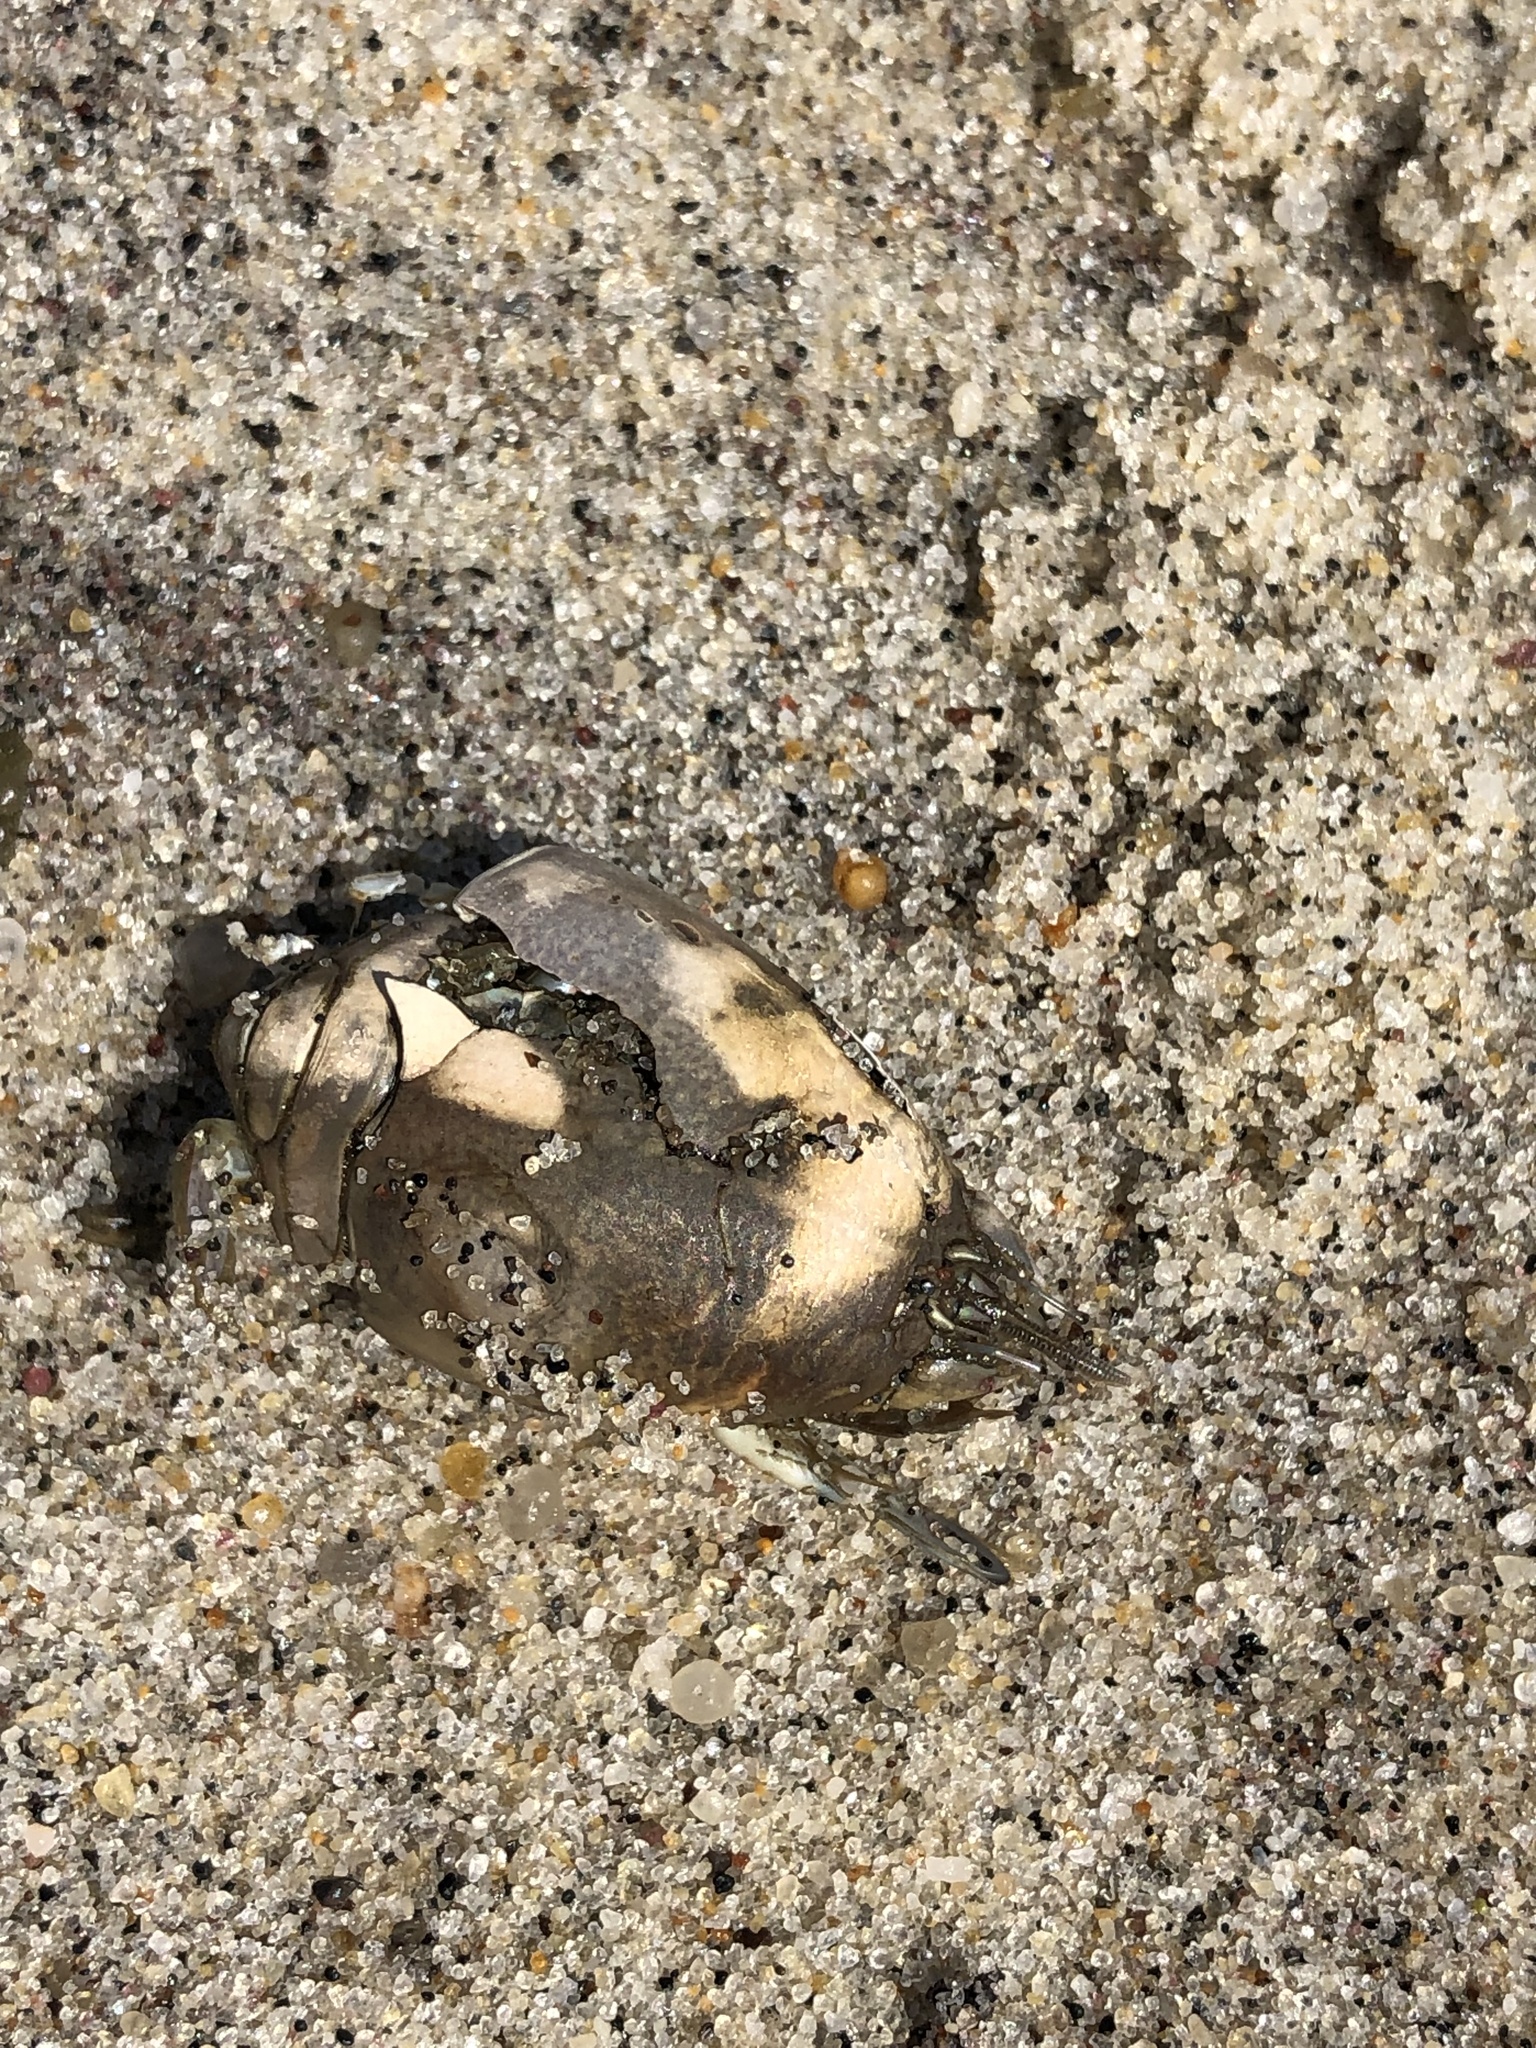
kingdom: Animalia
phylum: Arthropoda
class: Malacostraca
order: Decapoda
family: Hippidae
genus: Emerita
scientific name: Emerita talpoida
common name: Atlantic sand crab
